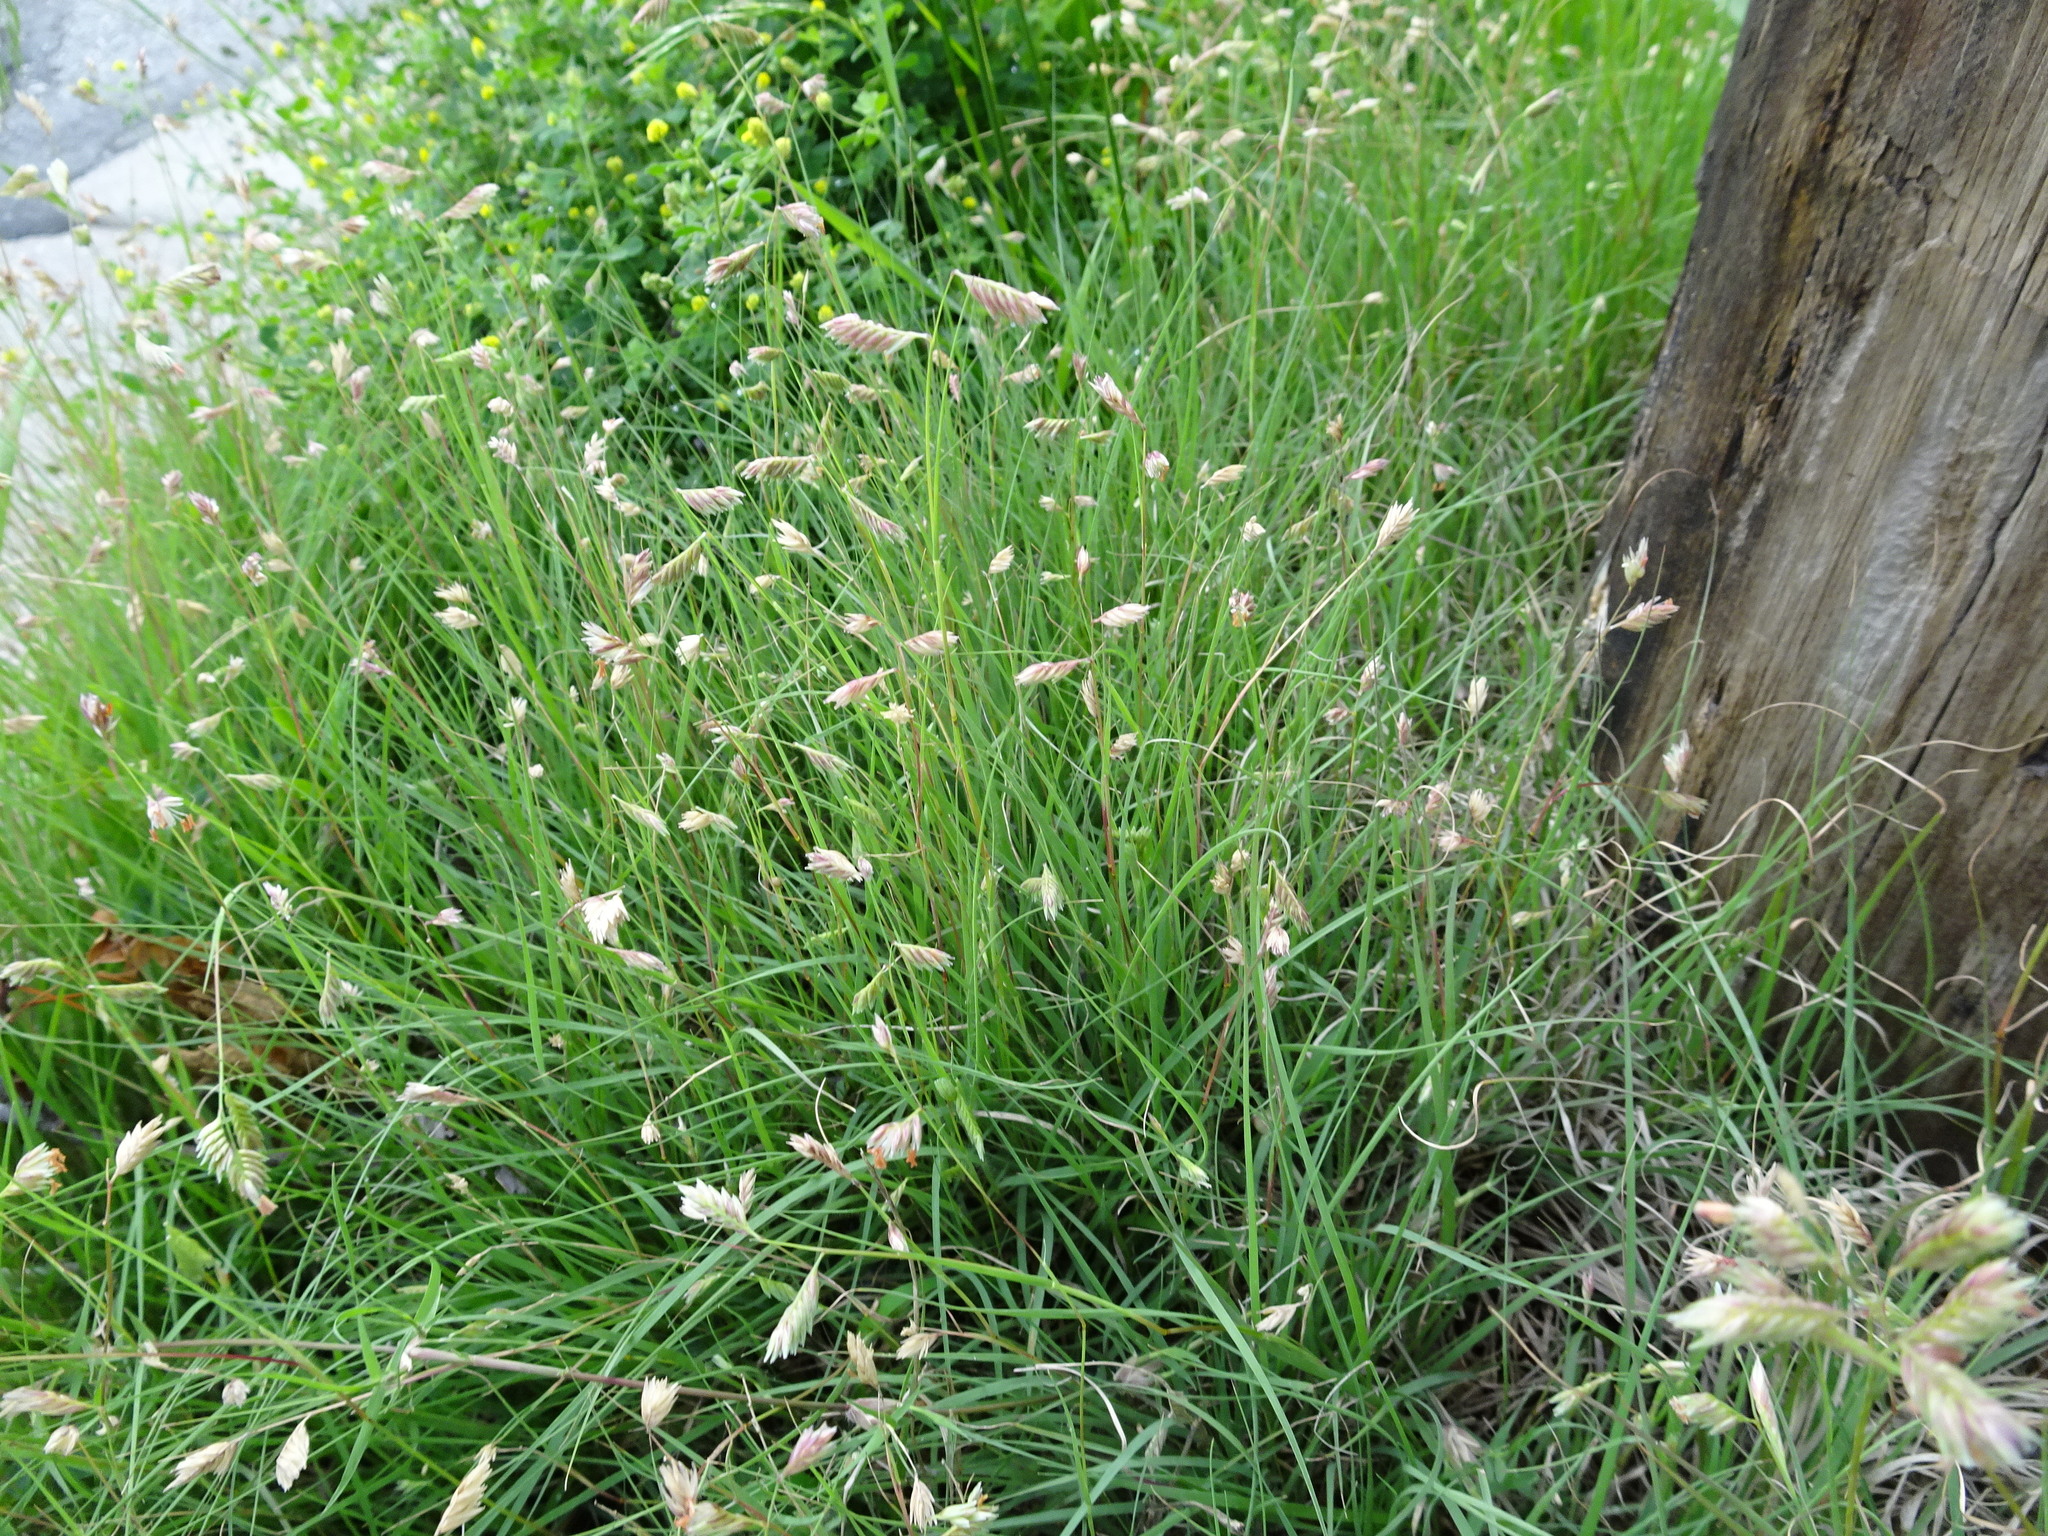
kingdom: Plantae
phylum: Tracheophyta
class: Liliopsida
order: Poales
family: Poaceae
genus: Bouteloua
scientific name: Bouteloua dactyloides
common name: Buffalo grass
